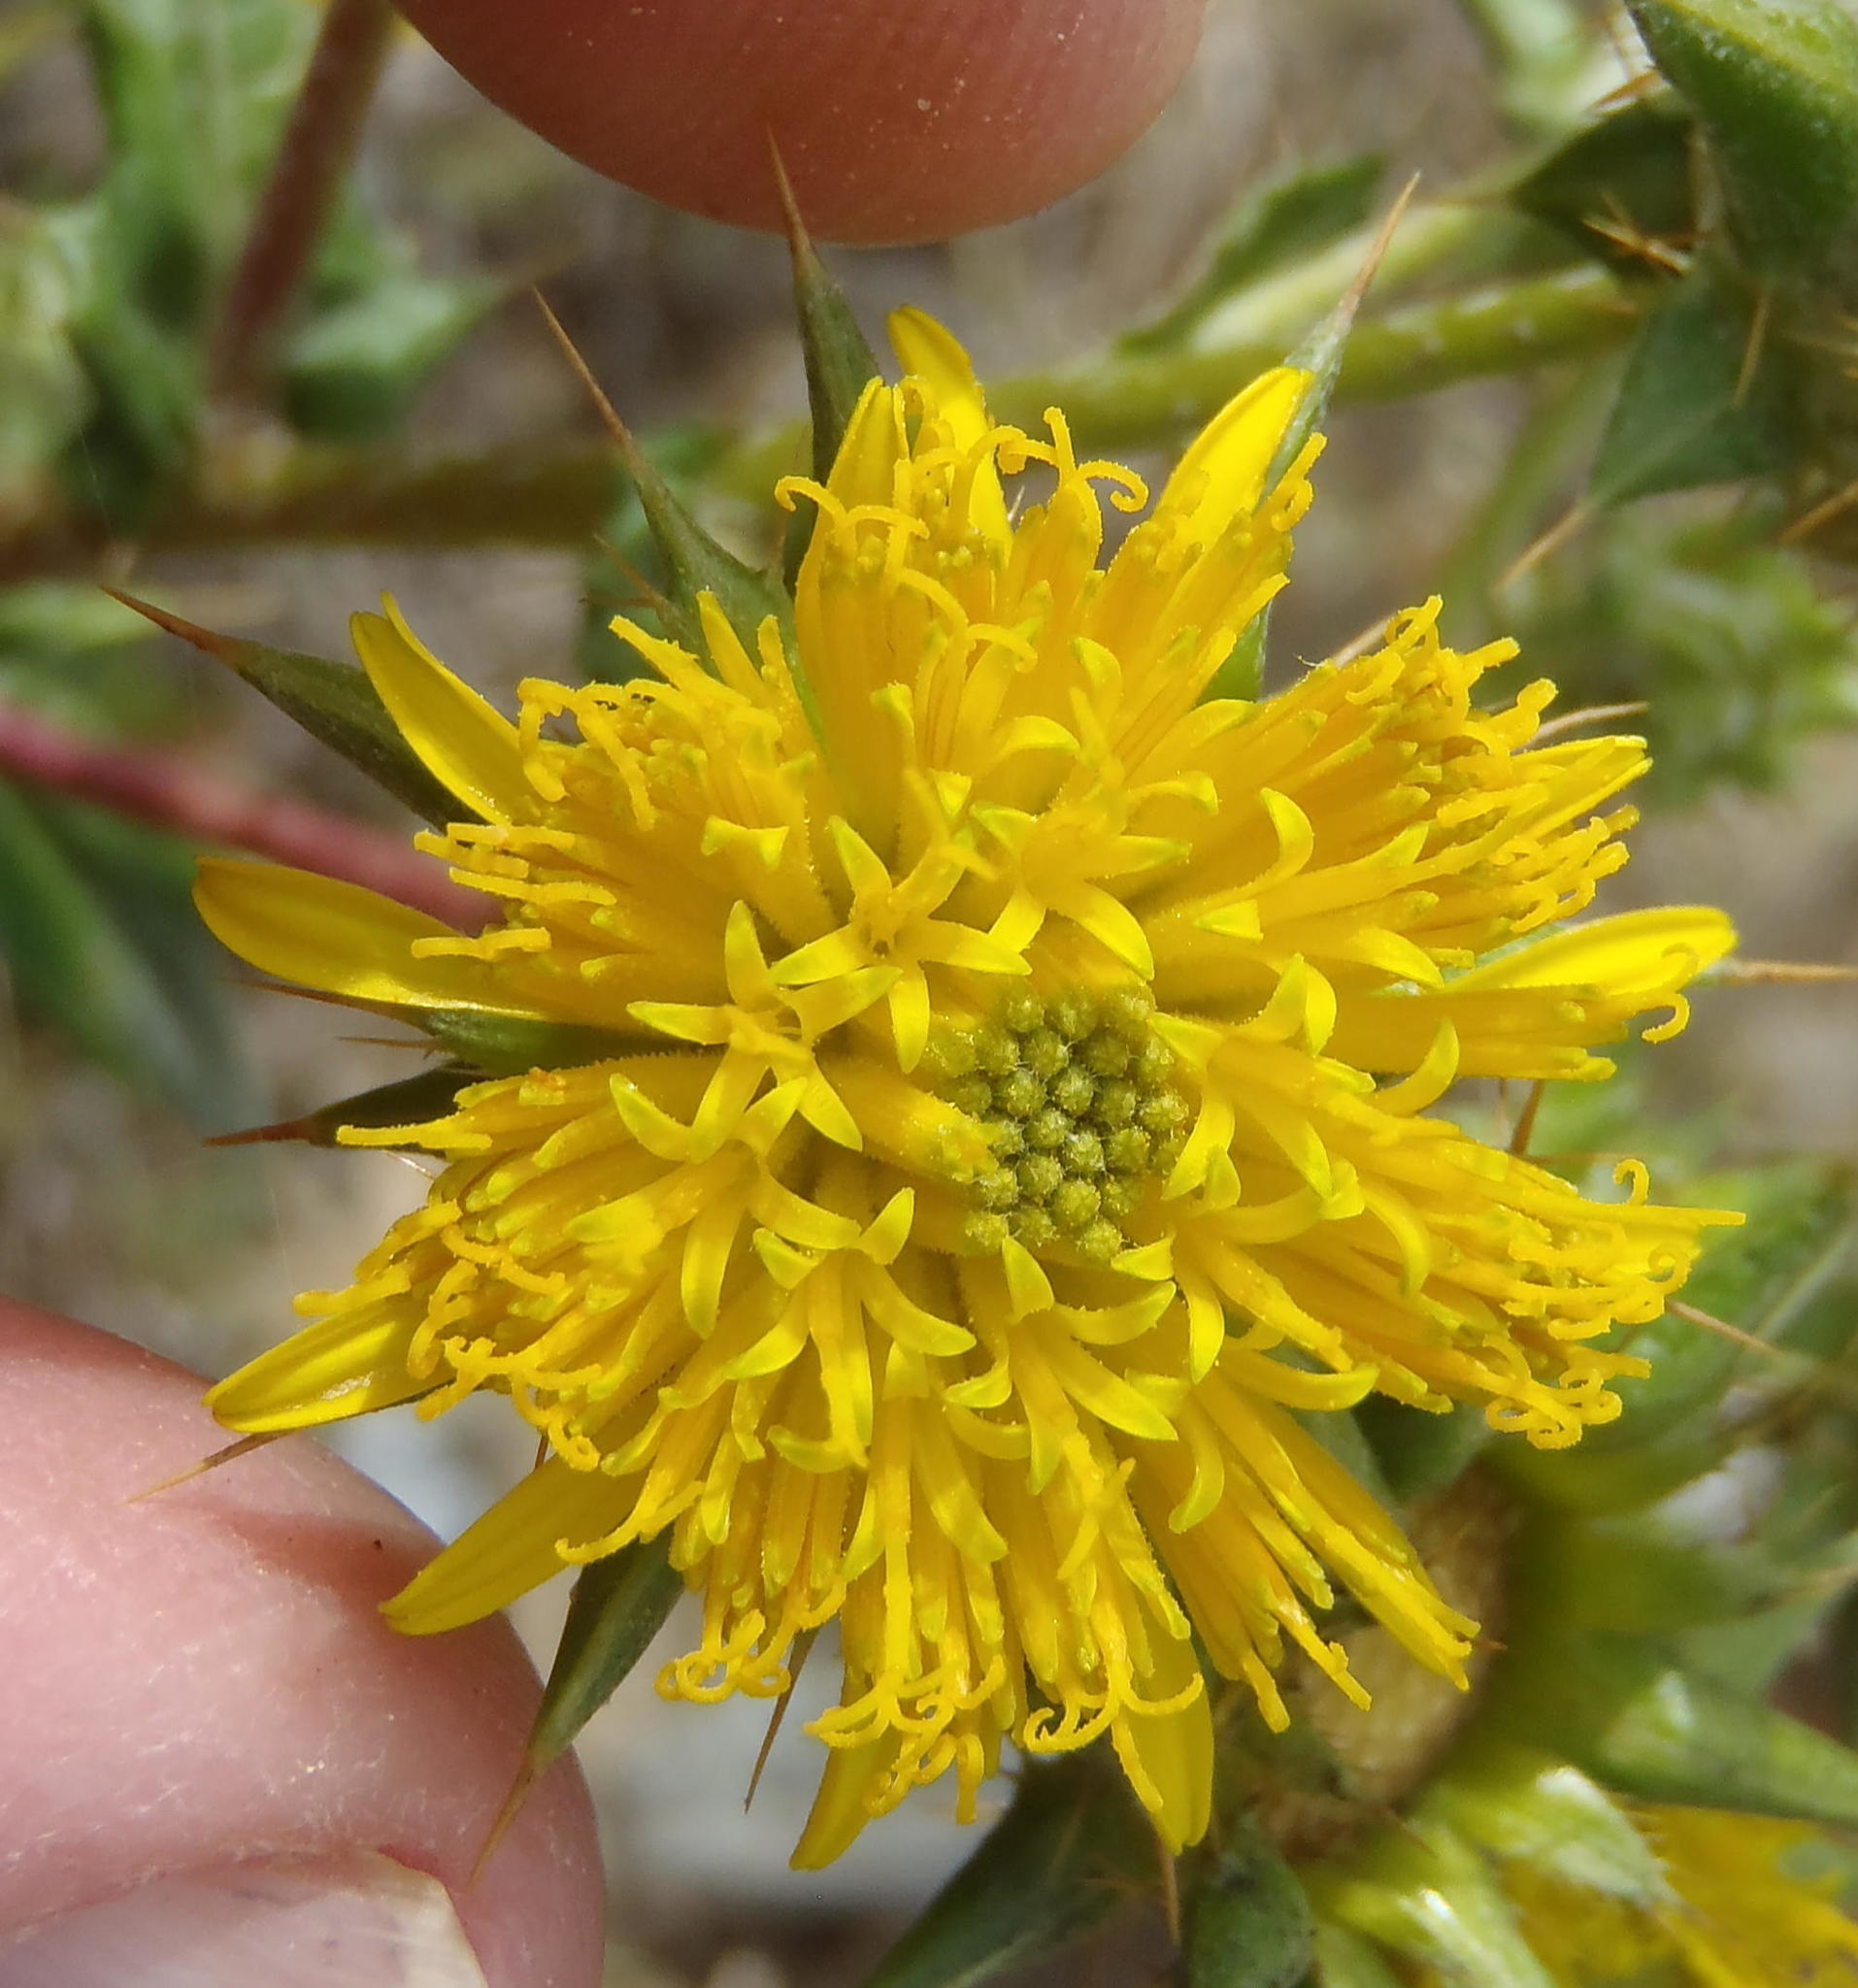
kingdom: Plantae
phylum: Tracheophyta
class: Magnoliopsida
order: Asterales
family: Asteraceae
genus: Berkheya
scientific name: Berkheya heterophylla
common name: Prickly gousblom
